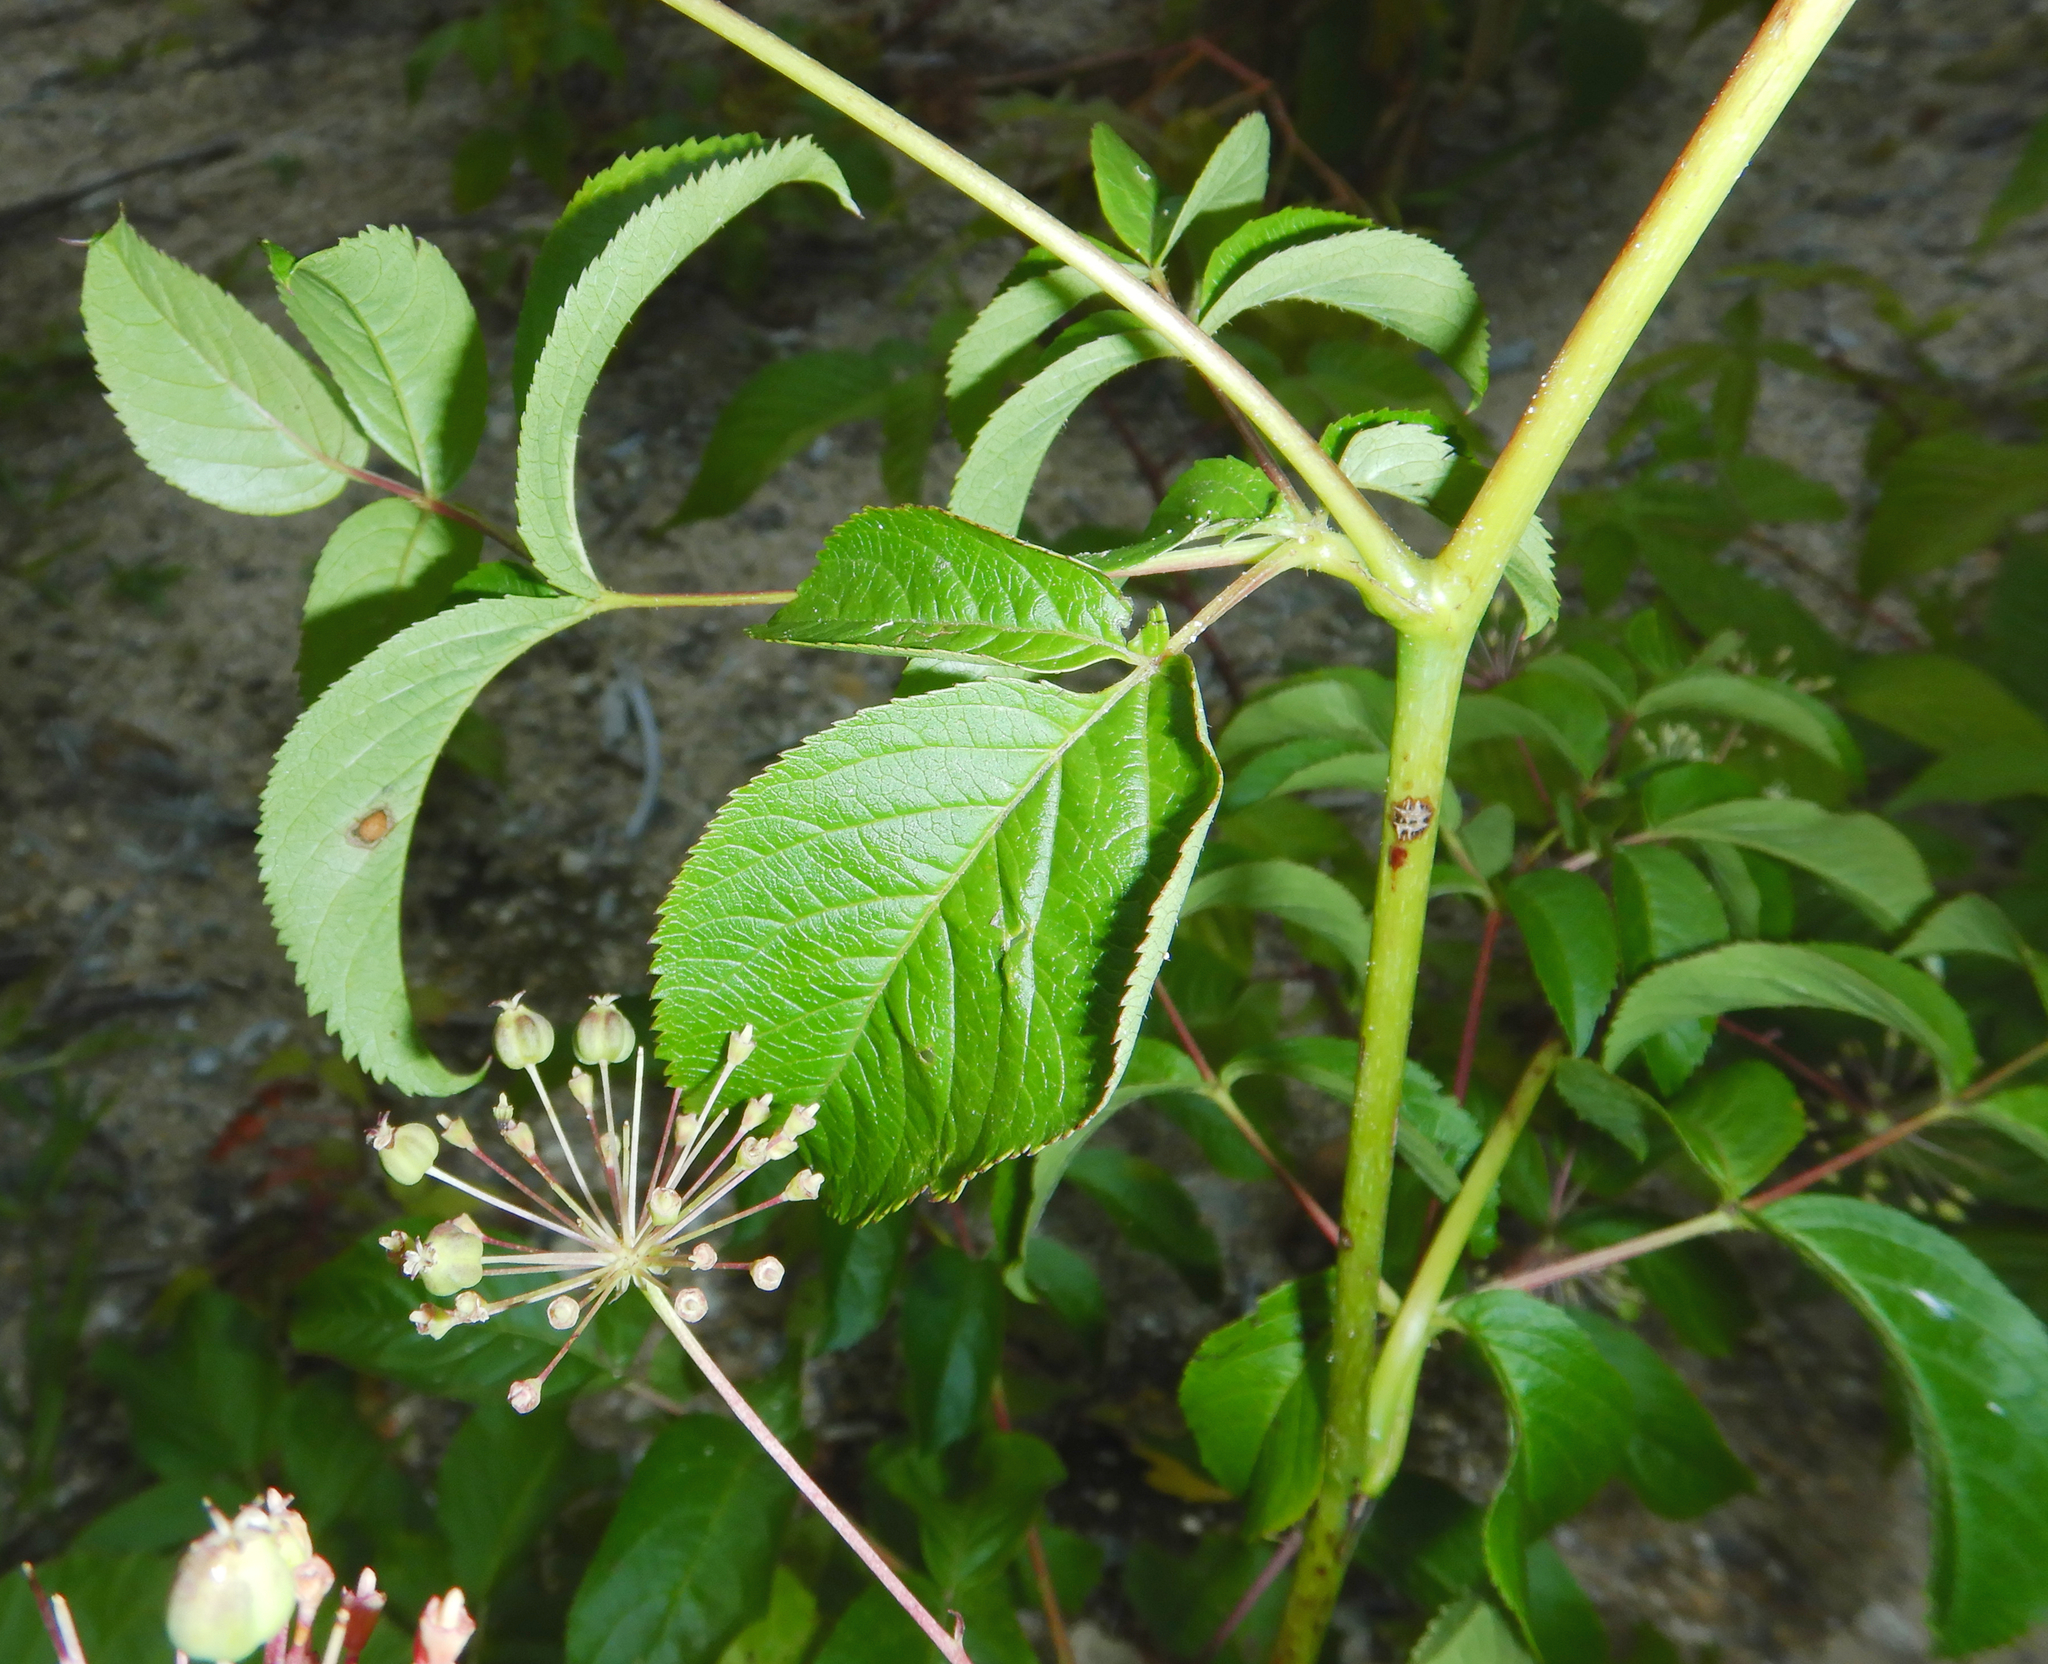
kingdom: Plantae
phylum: Tracheophyta
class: Magnoliopsida
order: Apiales
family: Araliaceae
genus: Aralia
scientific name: Aralia hispida
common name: Bristly sarsaparilla
